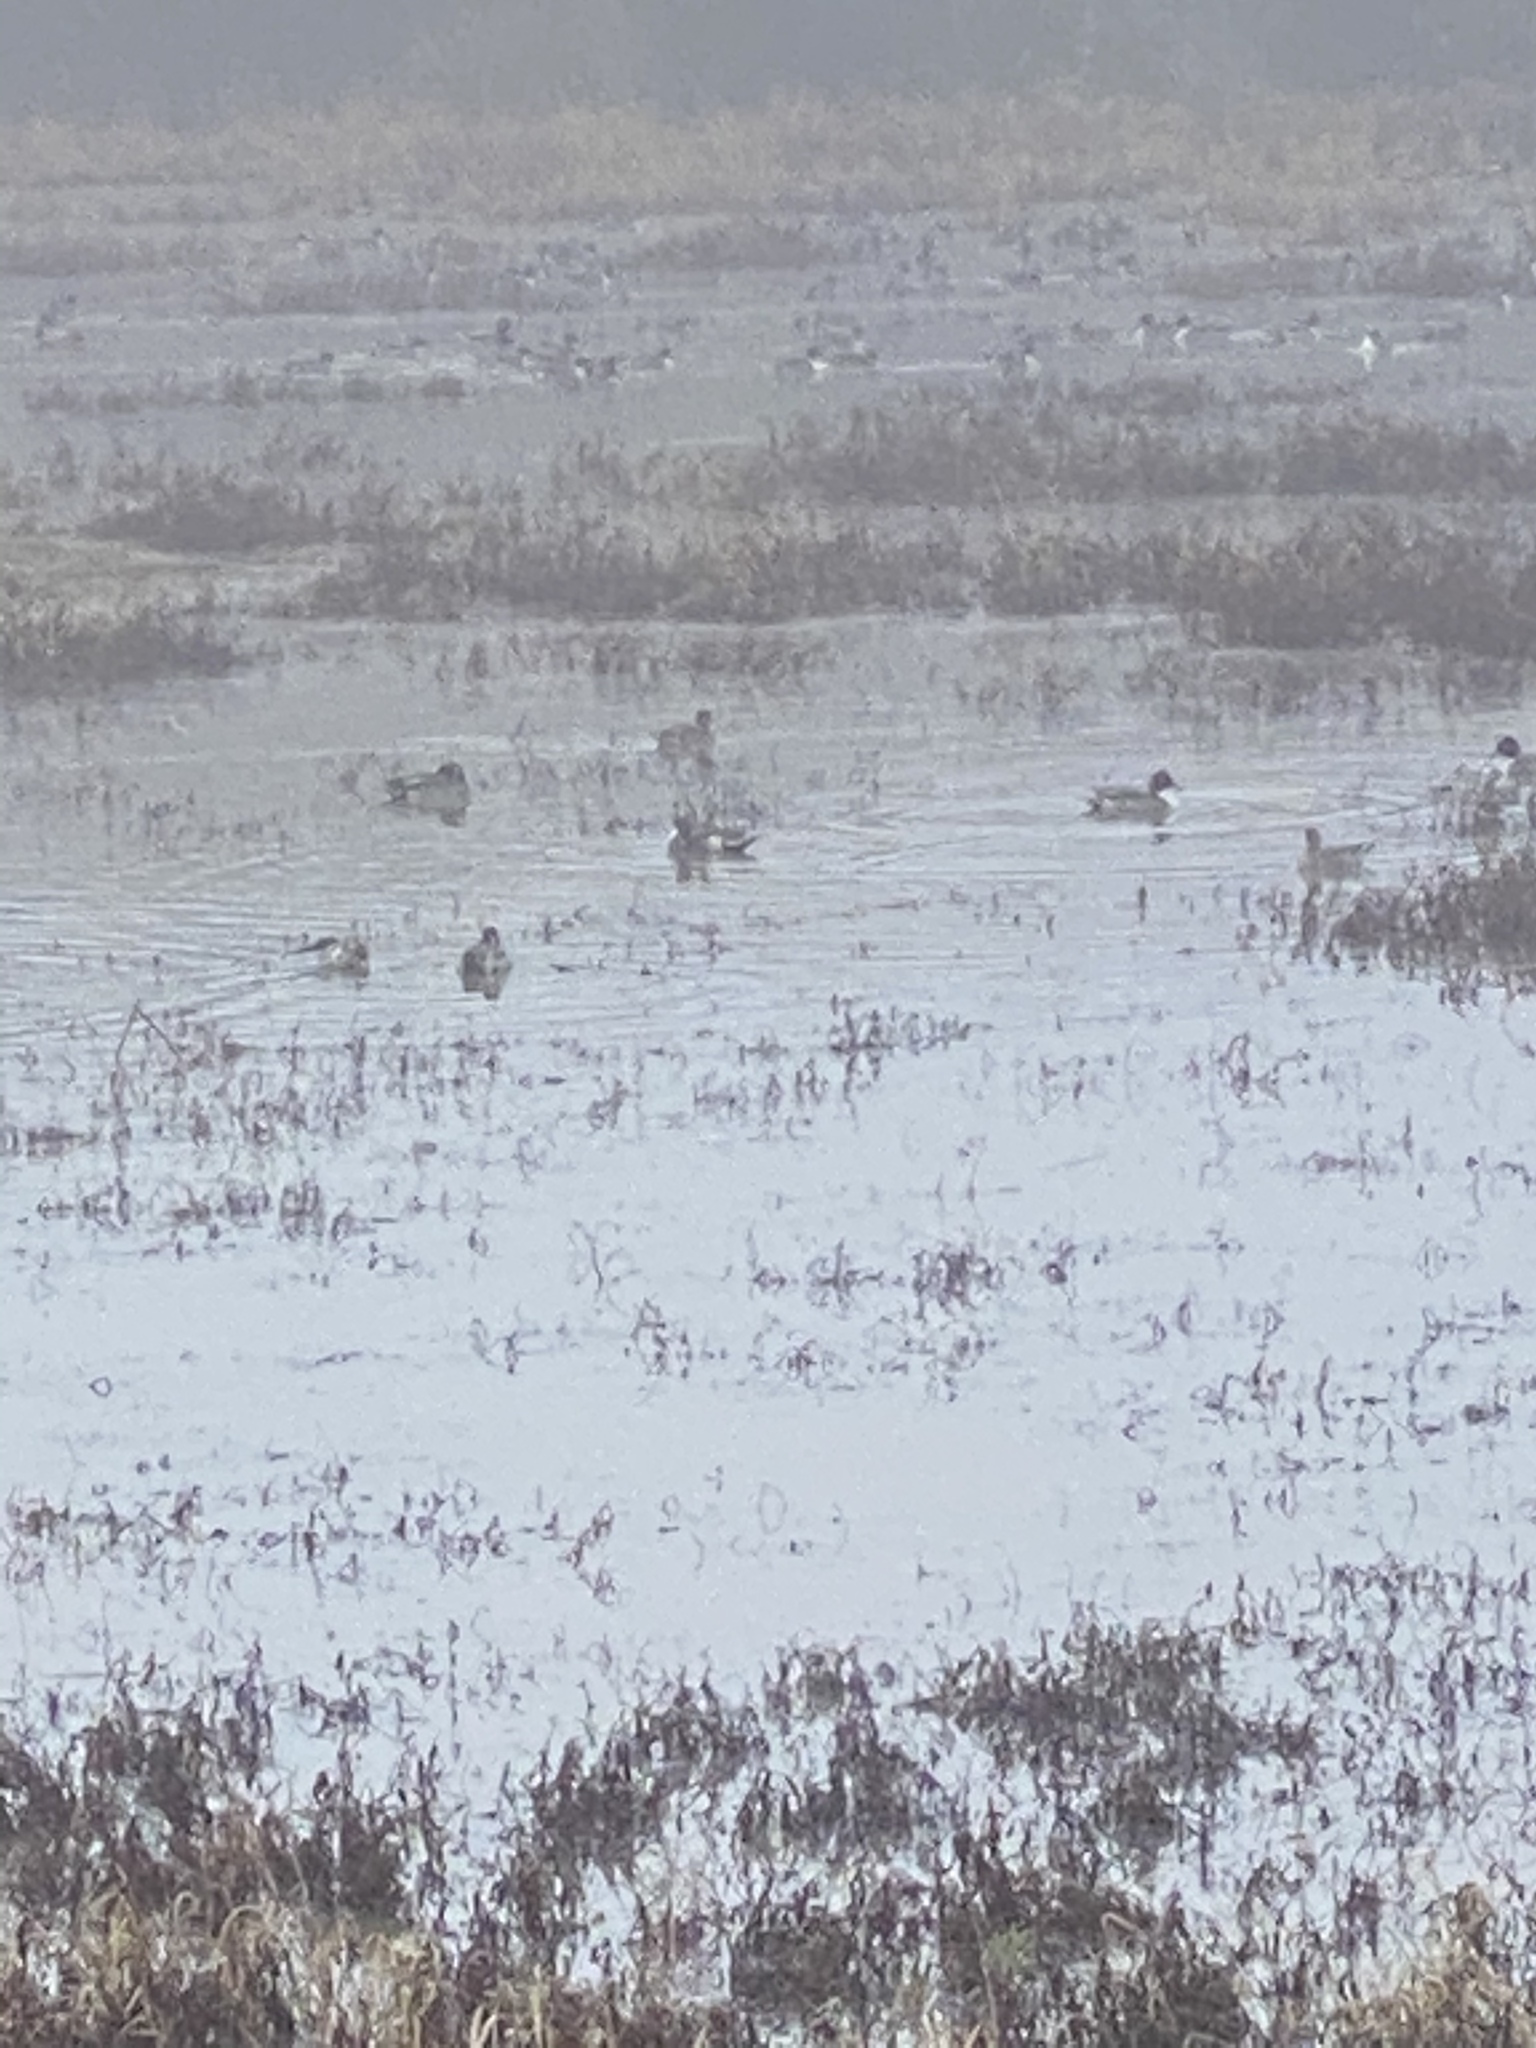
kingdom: Animalia
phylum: Chordata
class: Aves
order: Anseriformes
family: Anatidae
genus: Anas
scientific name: Anas acuta
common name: Northern pintail
